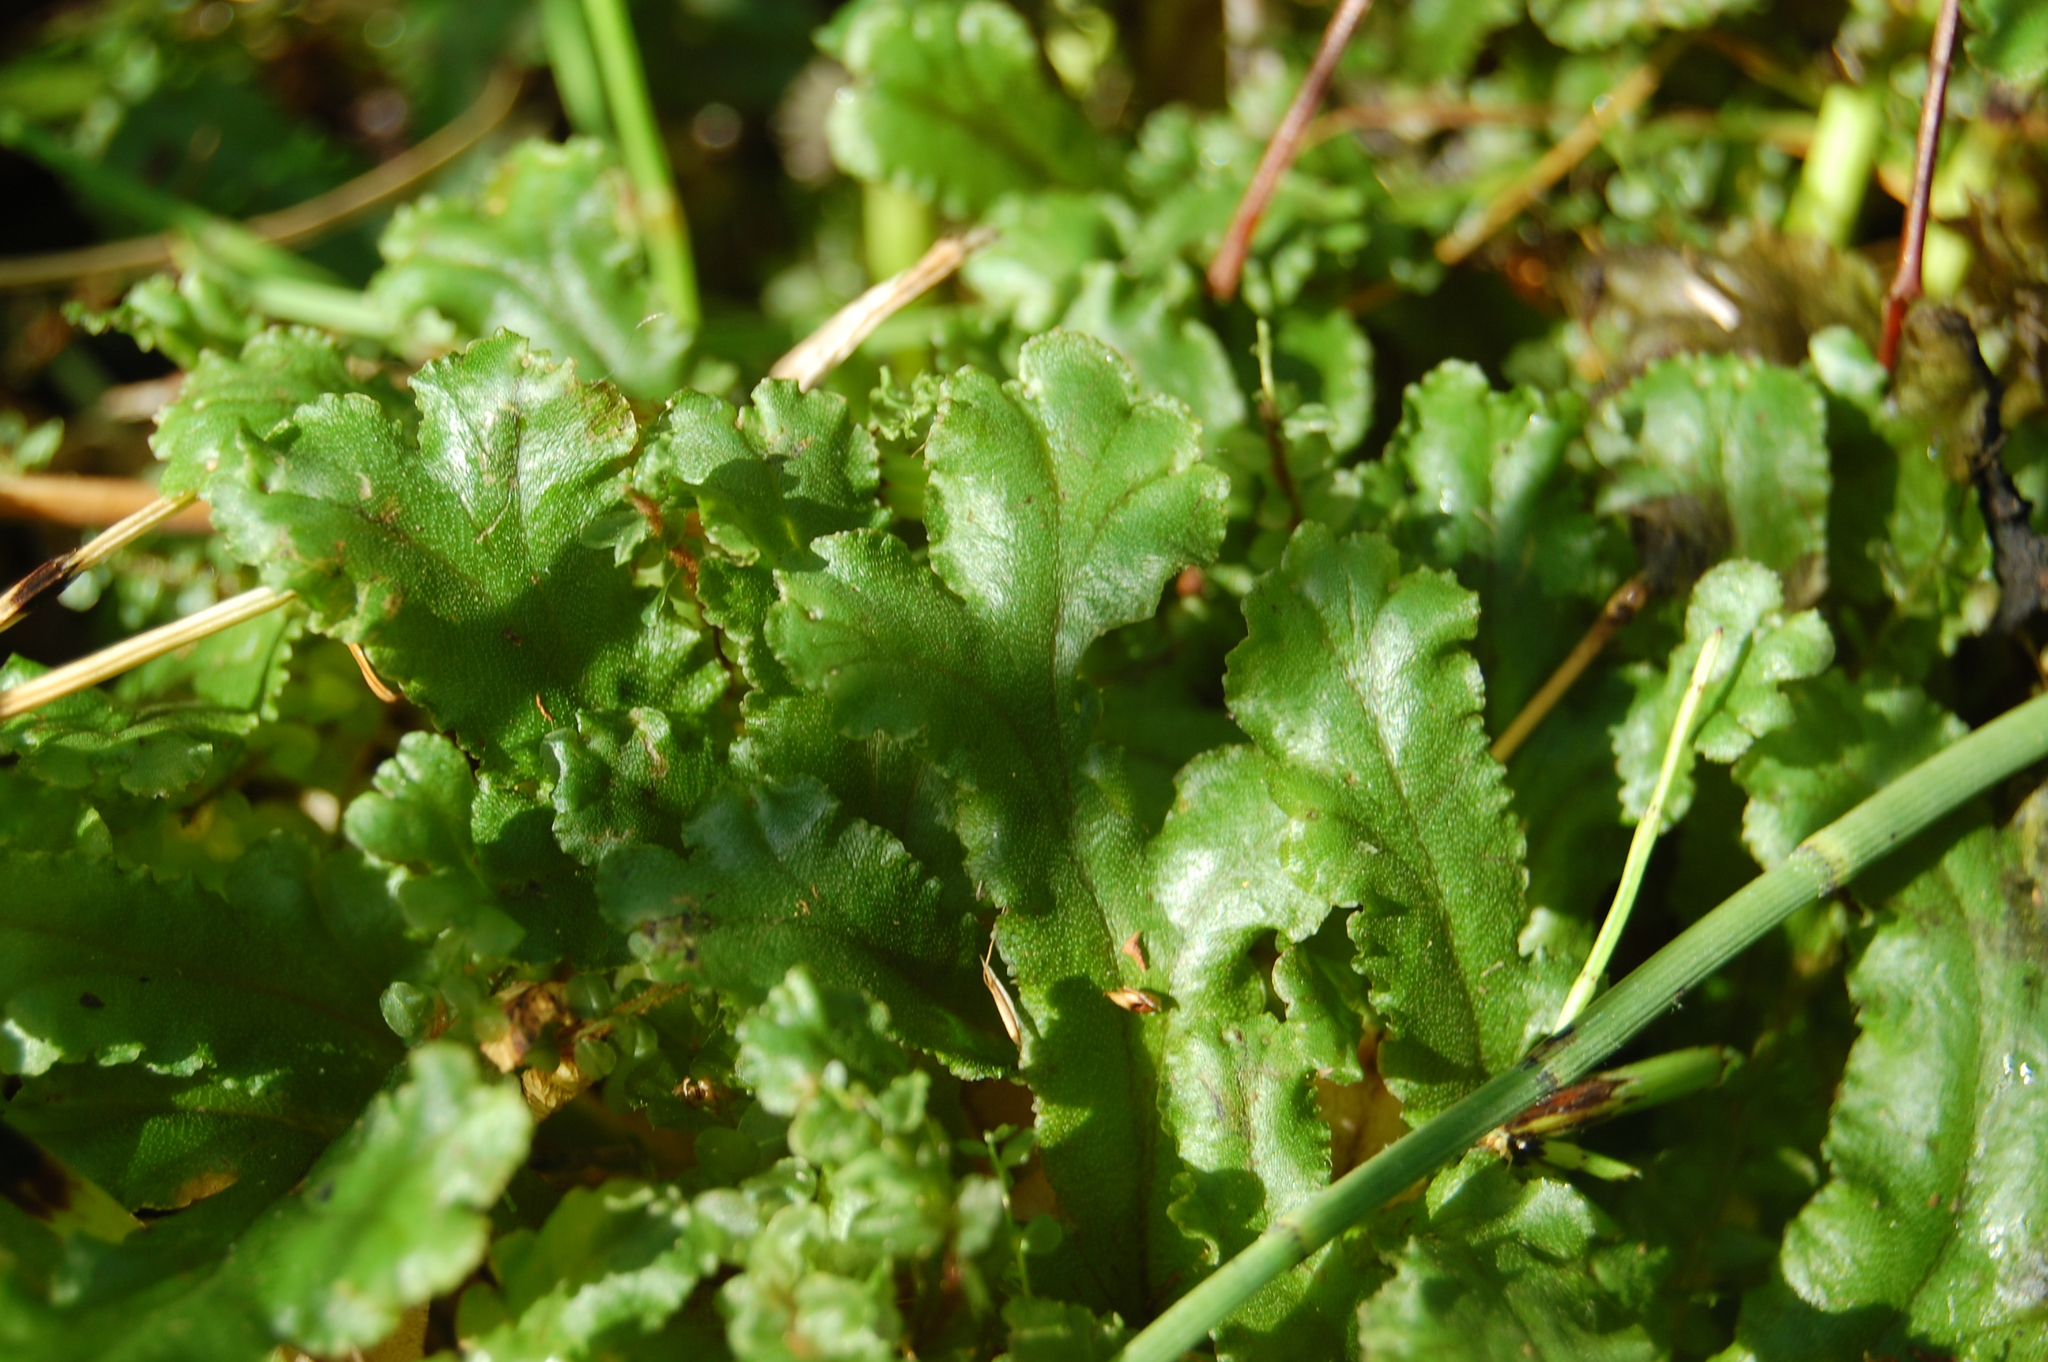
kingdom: Plantae
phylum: Marchantiophyta
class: Marchantiopsida
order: Marchantiales
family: Marchantiaceae
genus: Marchantia
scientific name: Marchantia polymorpha
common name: Common liverwort
